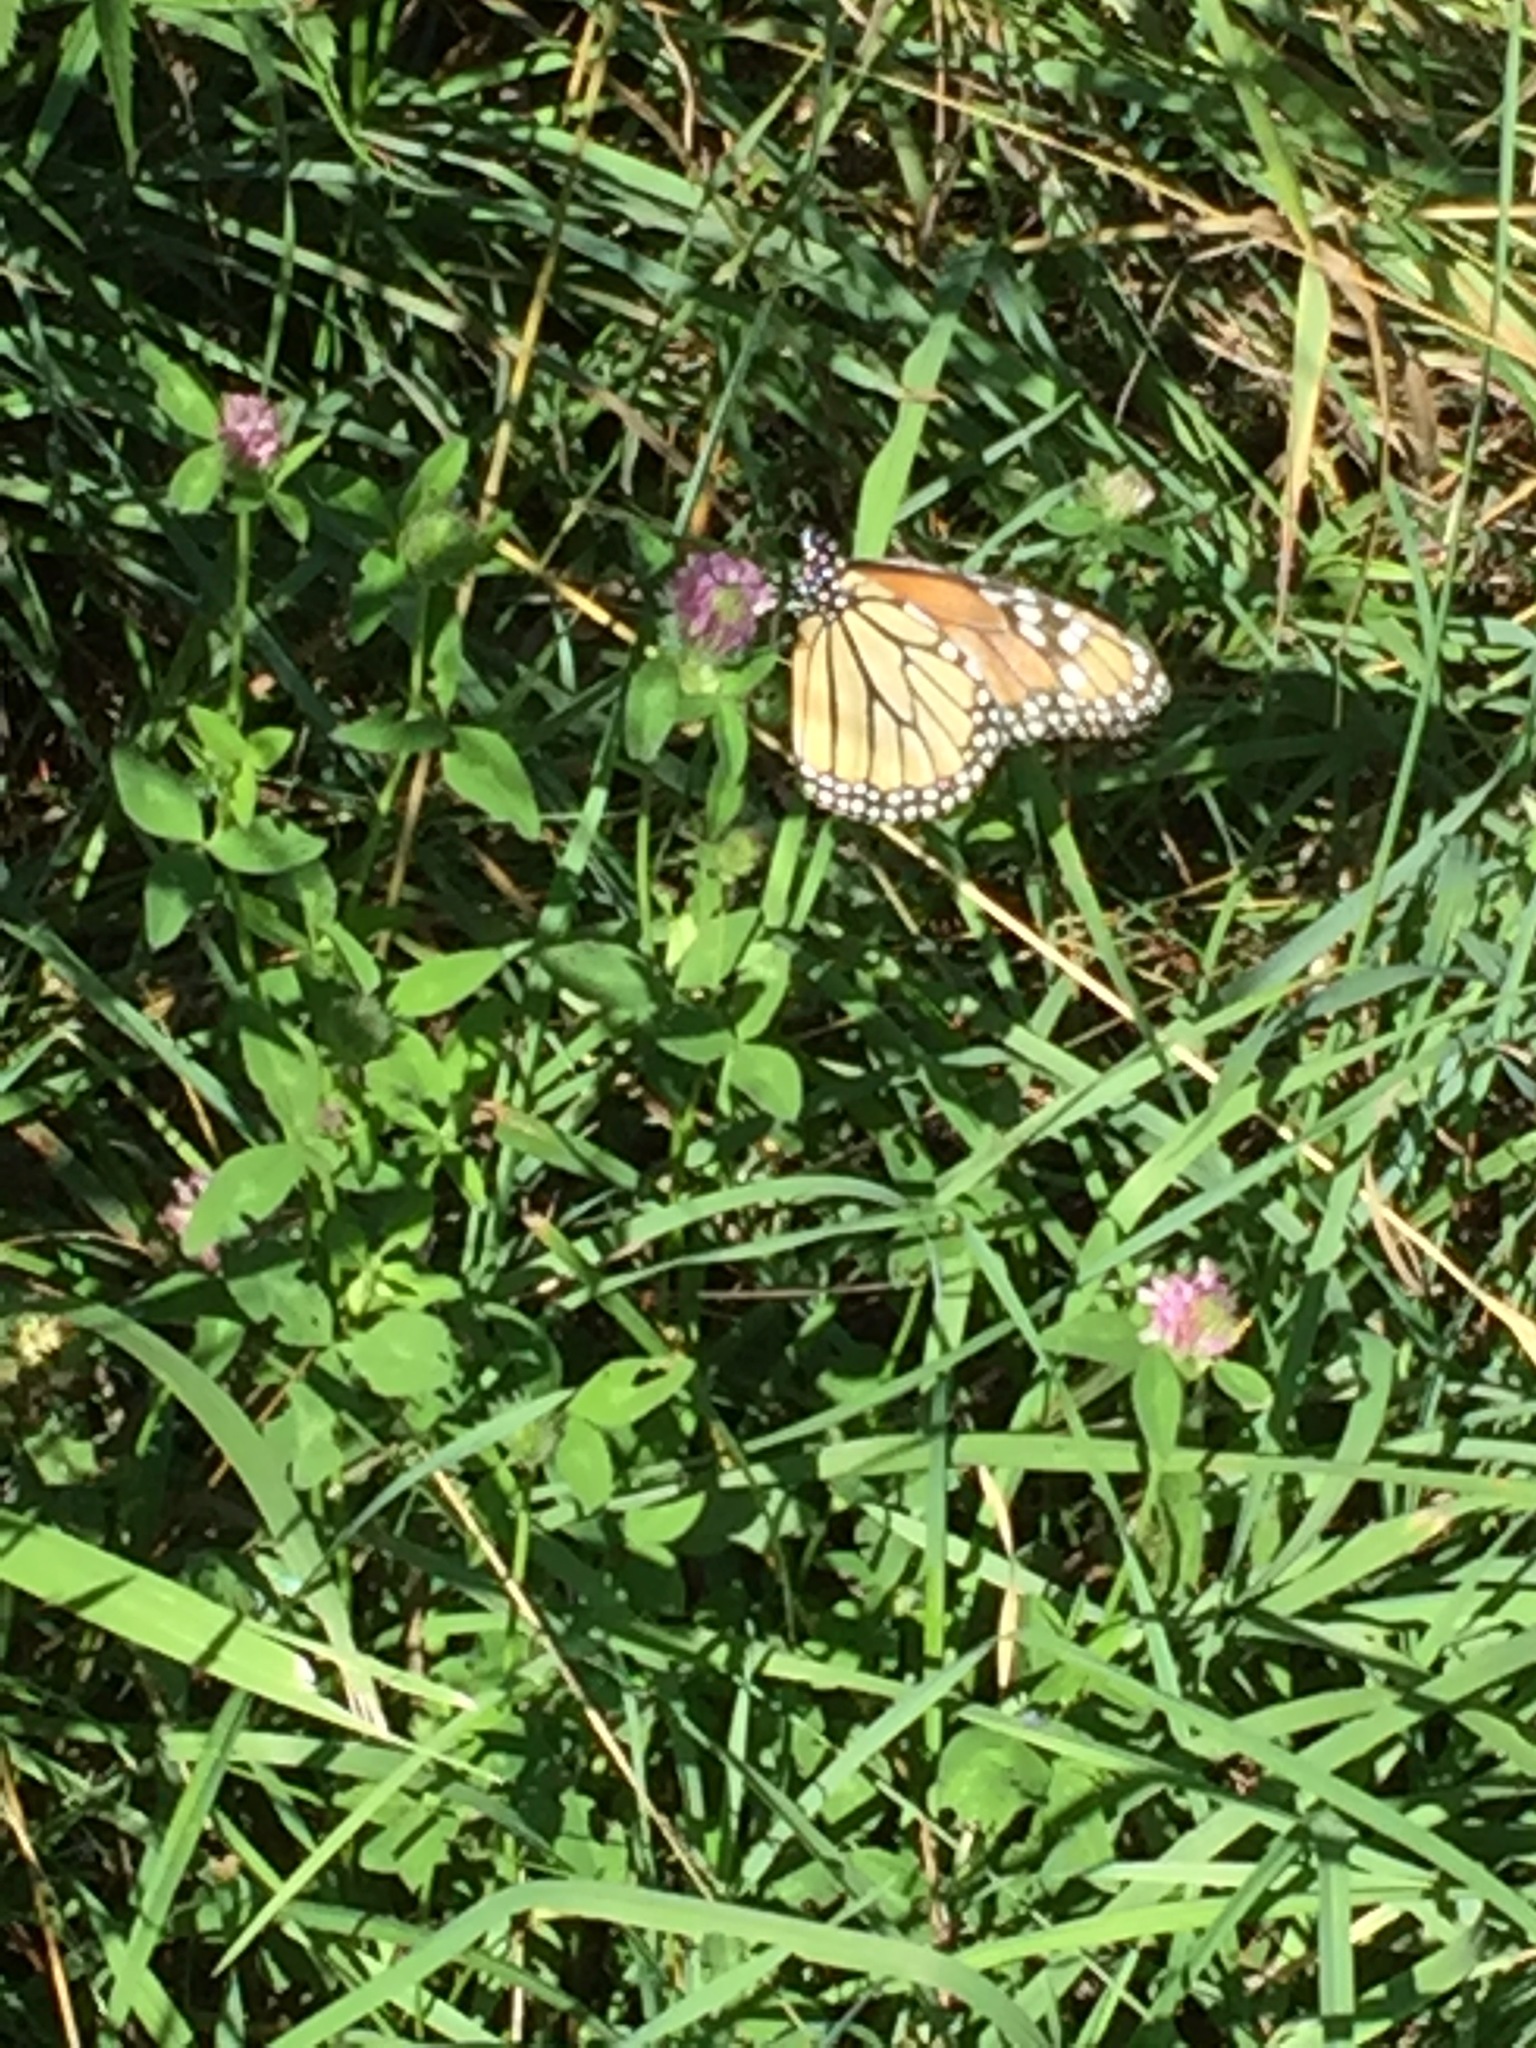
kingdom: Animalia
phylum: Arthropoda
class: Insecta
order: Lepidoptera
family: Nymphalidae
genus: Danaus
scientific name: Danaus plexippus
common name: Monarch
